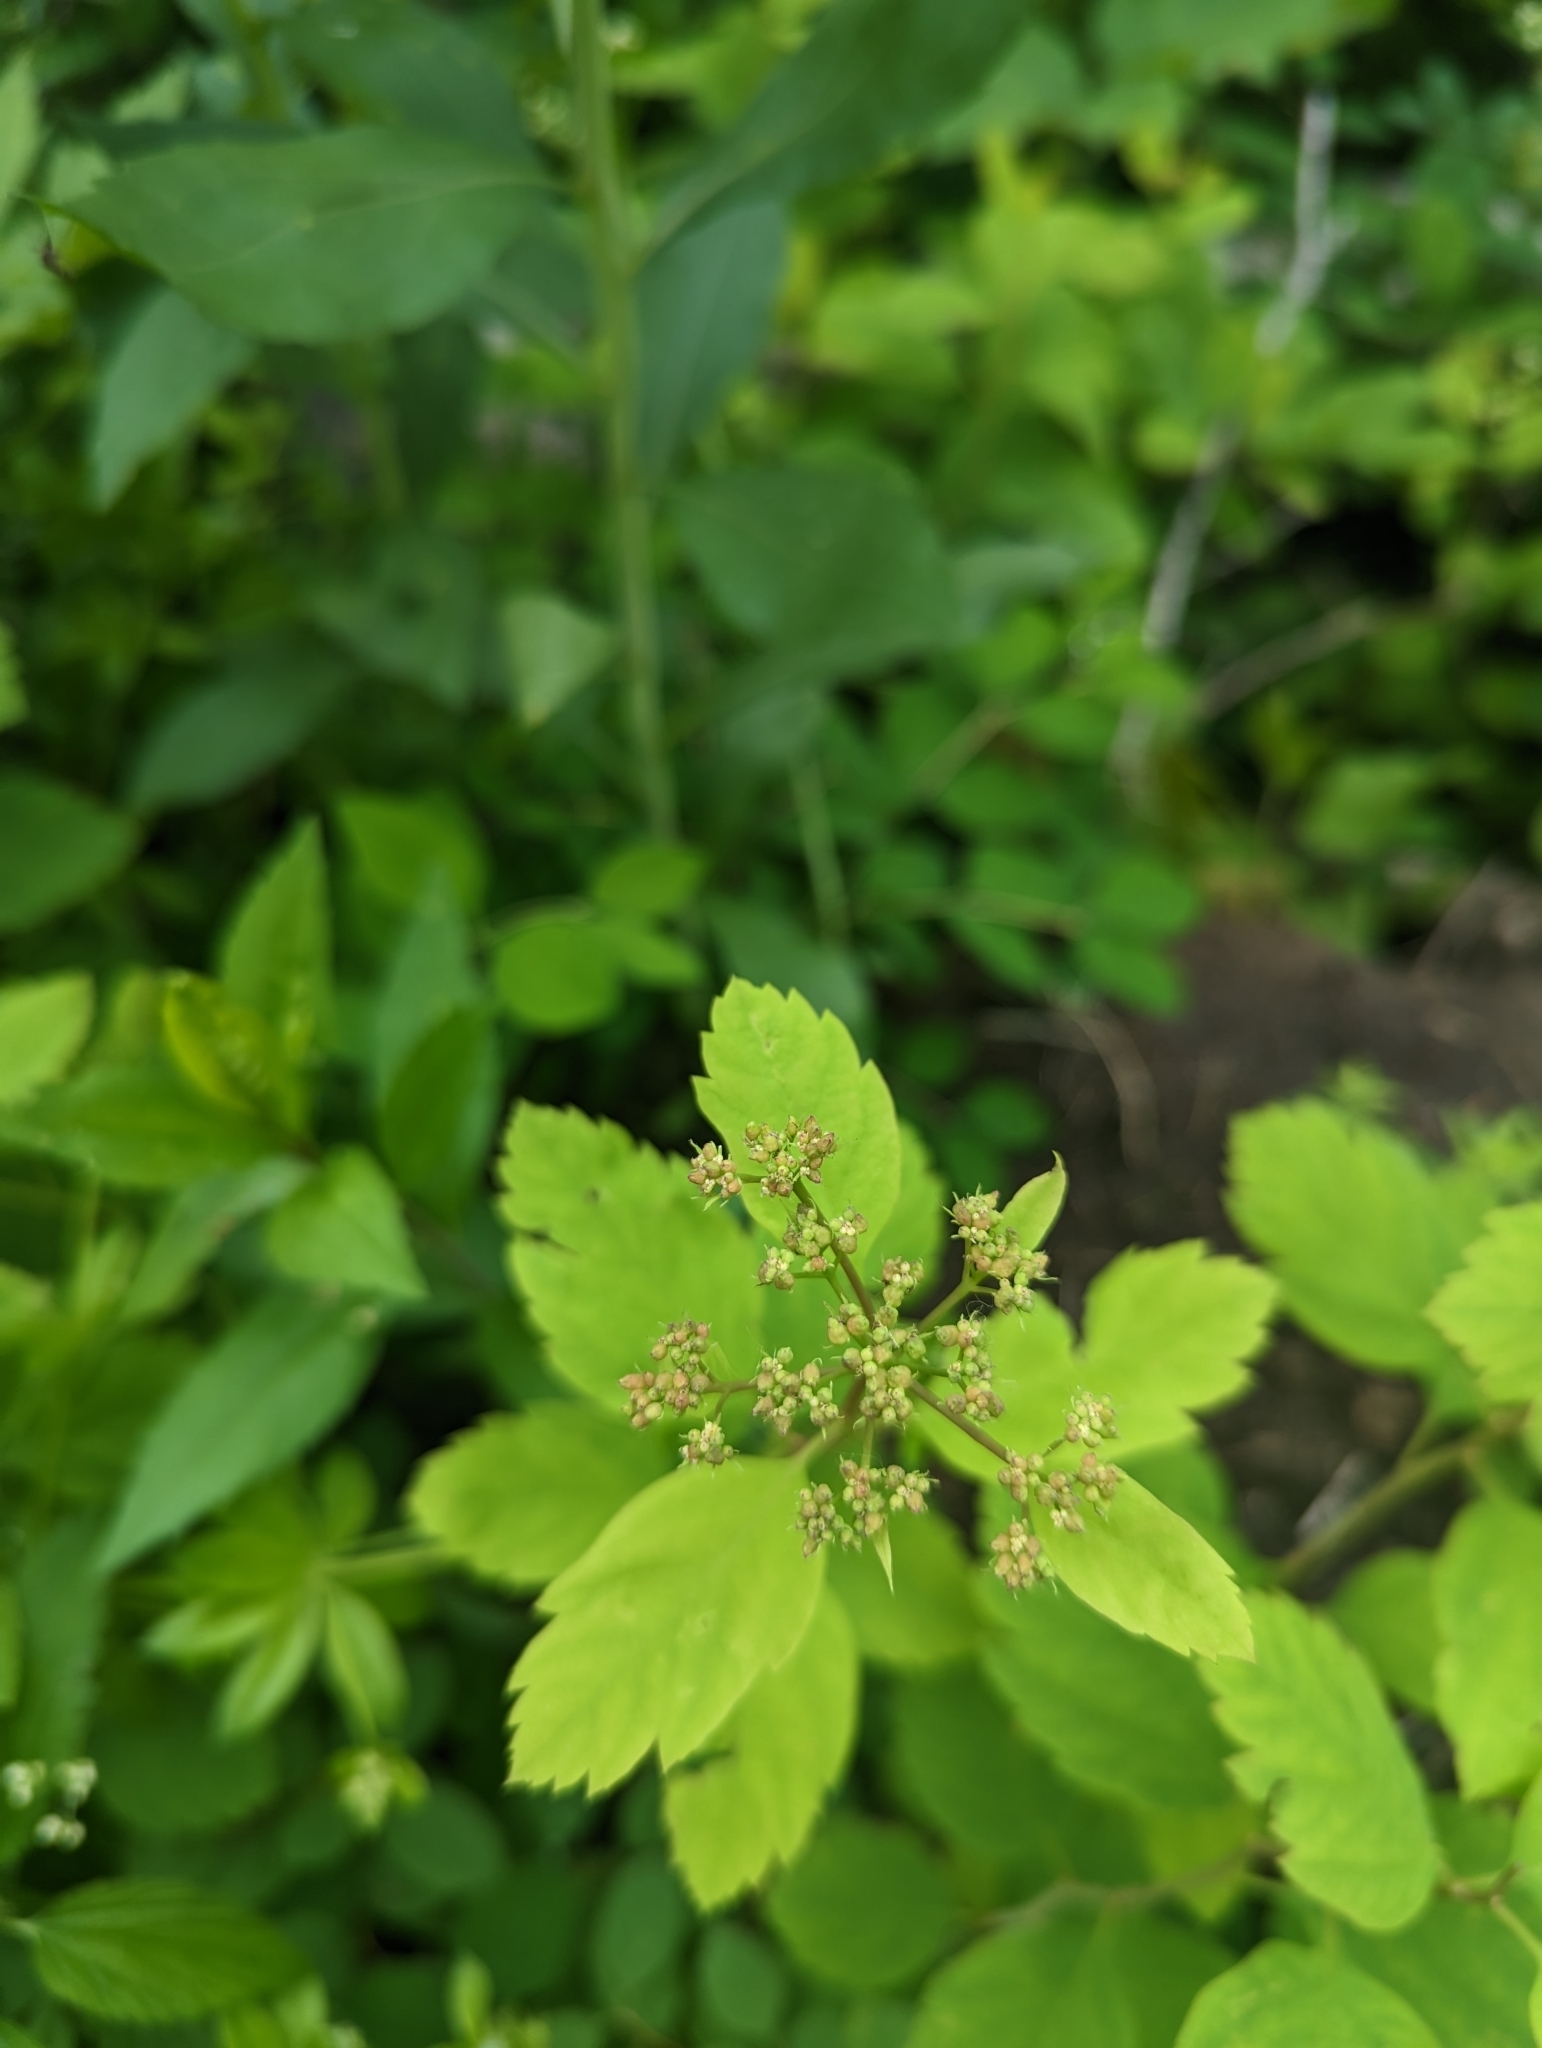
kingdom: Plantae
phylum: Tracheophyta
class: Magnoliopsida
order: Rosales
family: Rosaceae
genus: Spiraea
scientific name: Spiraea lucida
